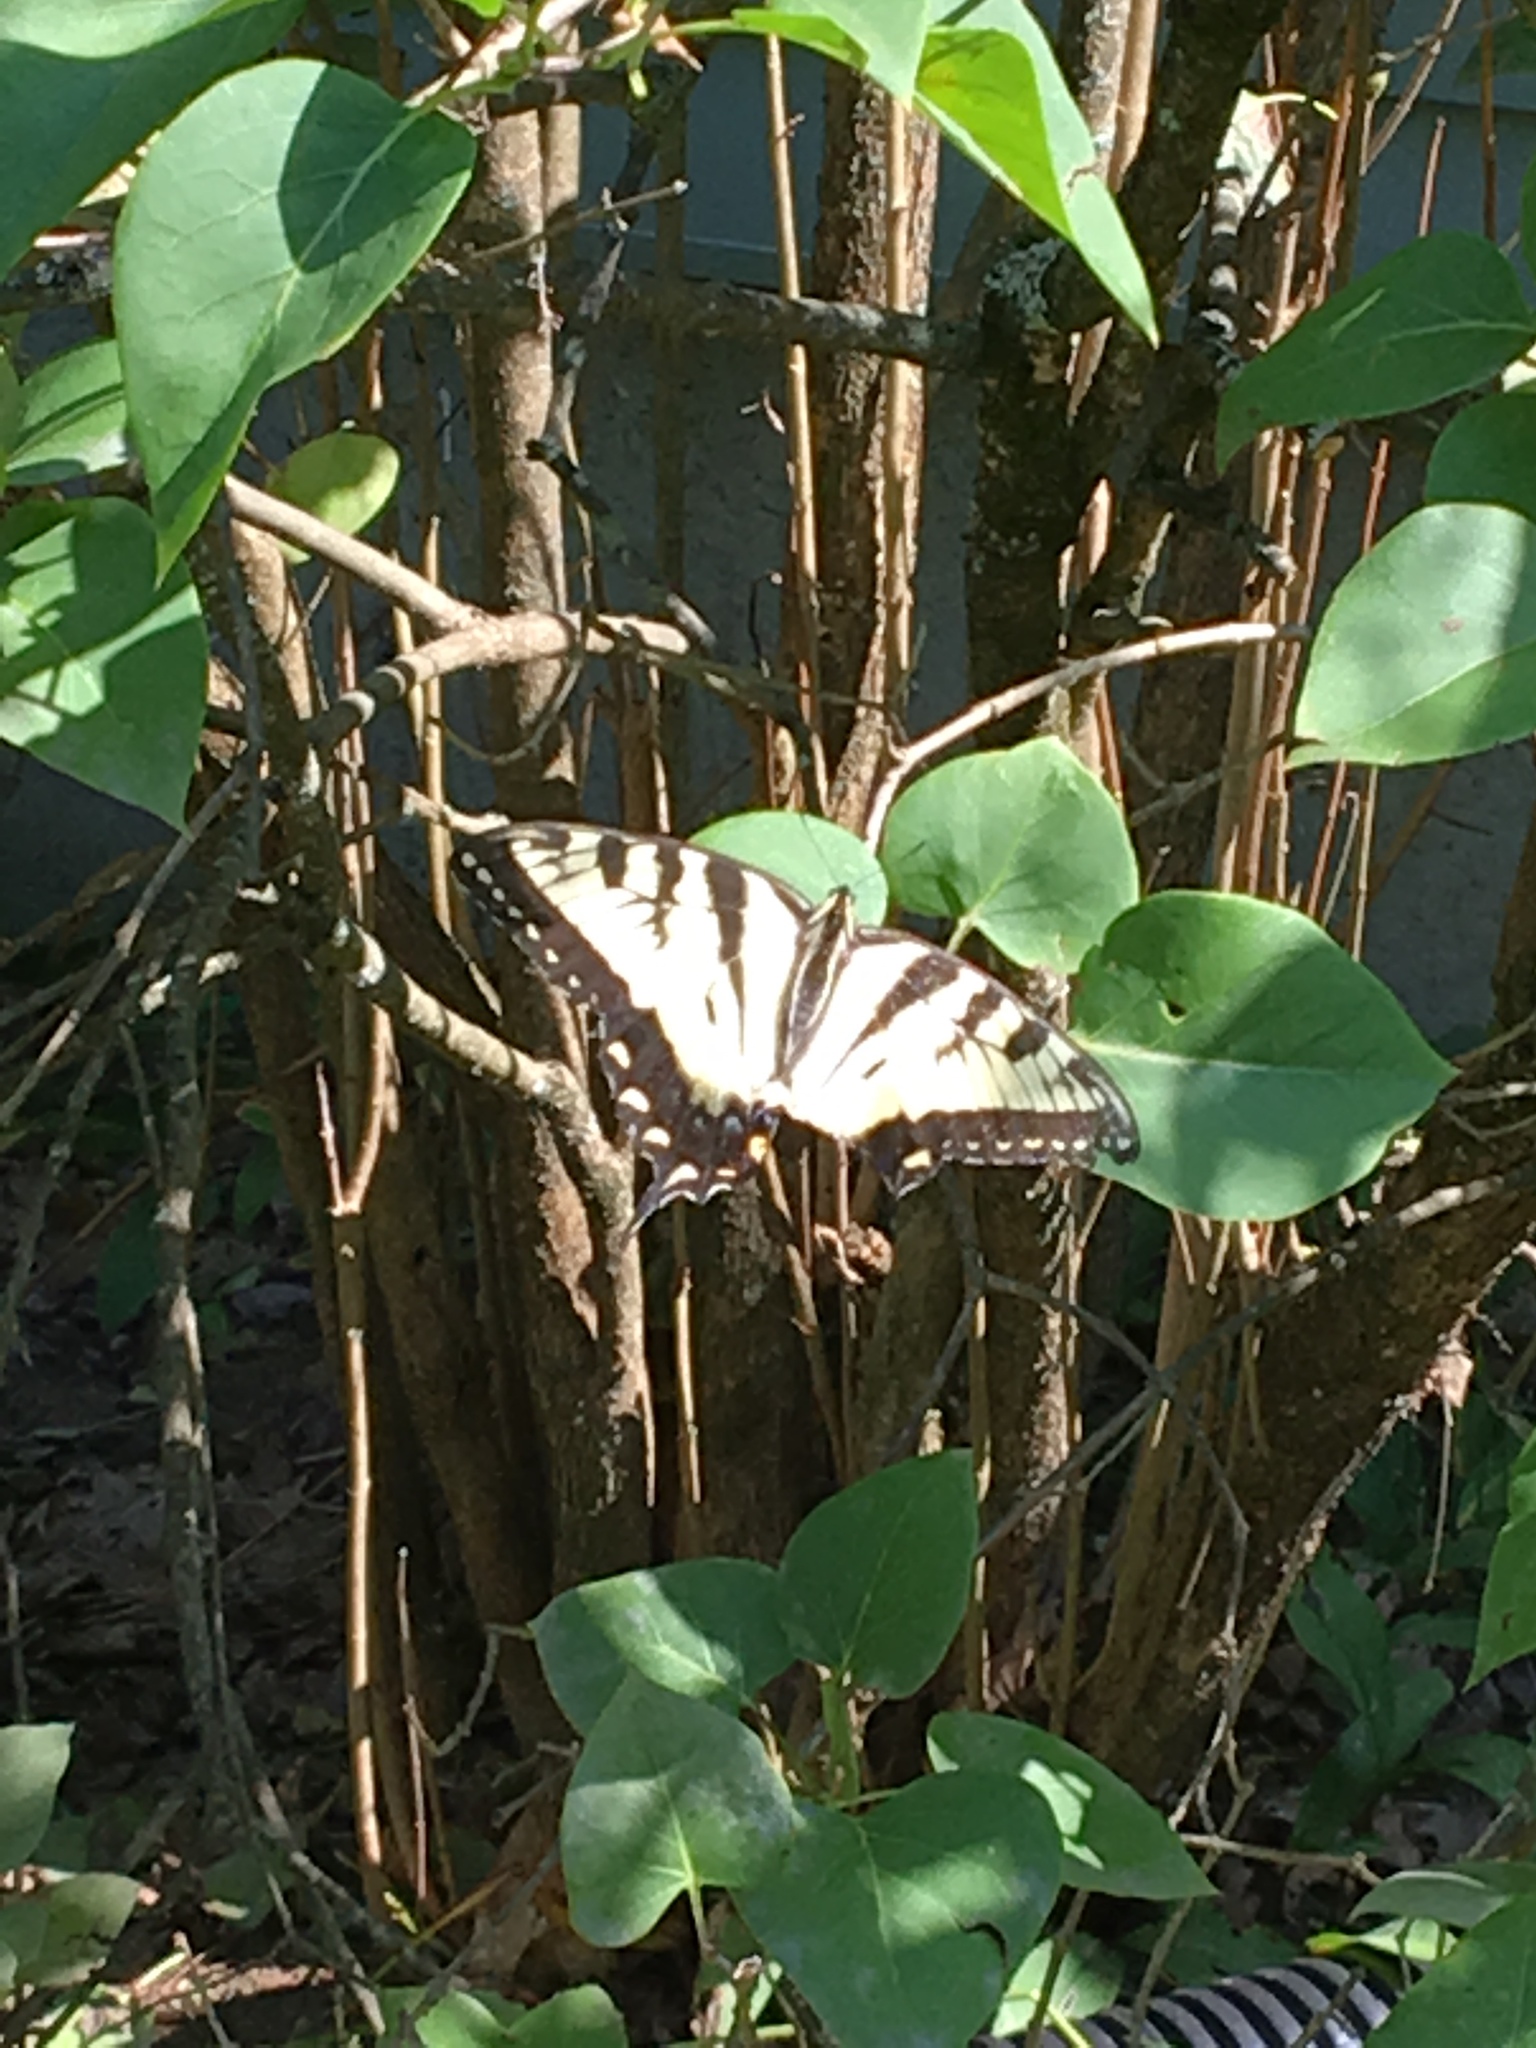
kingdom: Animalia
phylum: Arthropoda
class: Insecta
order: Lepidoptera
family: Papilionidae
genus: Papilio
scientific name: Papilio glaucus
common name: Tiger swallowtail
